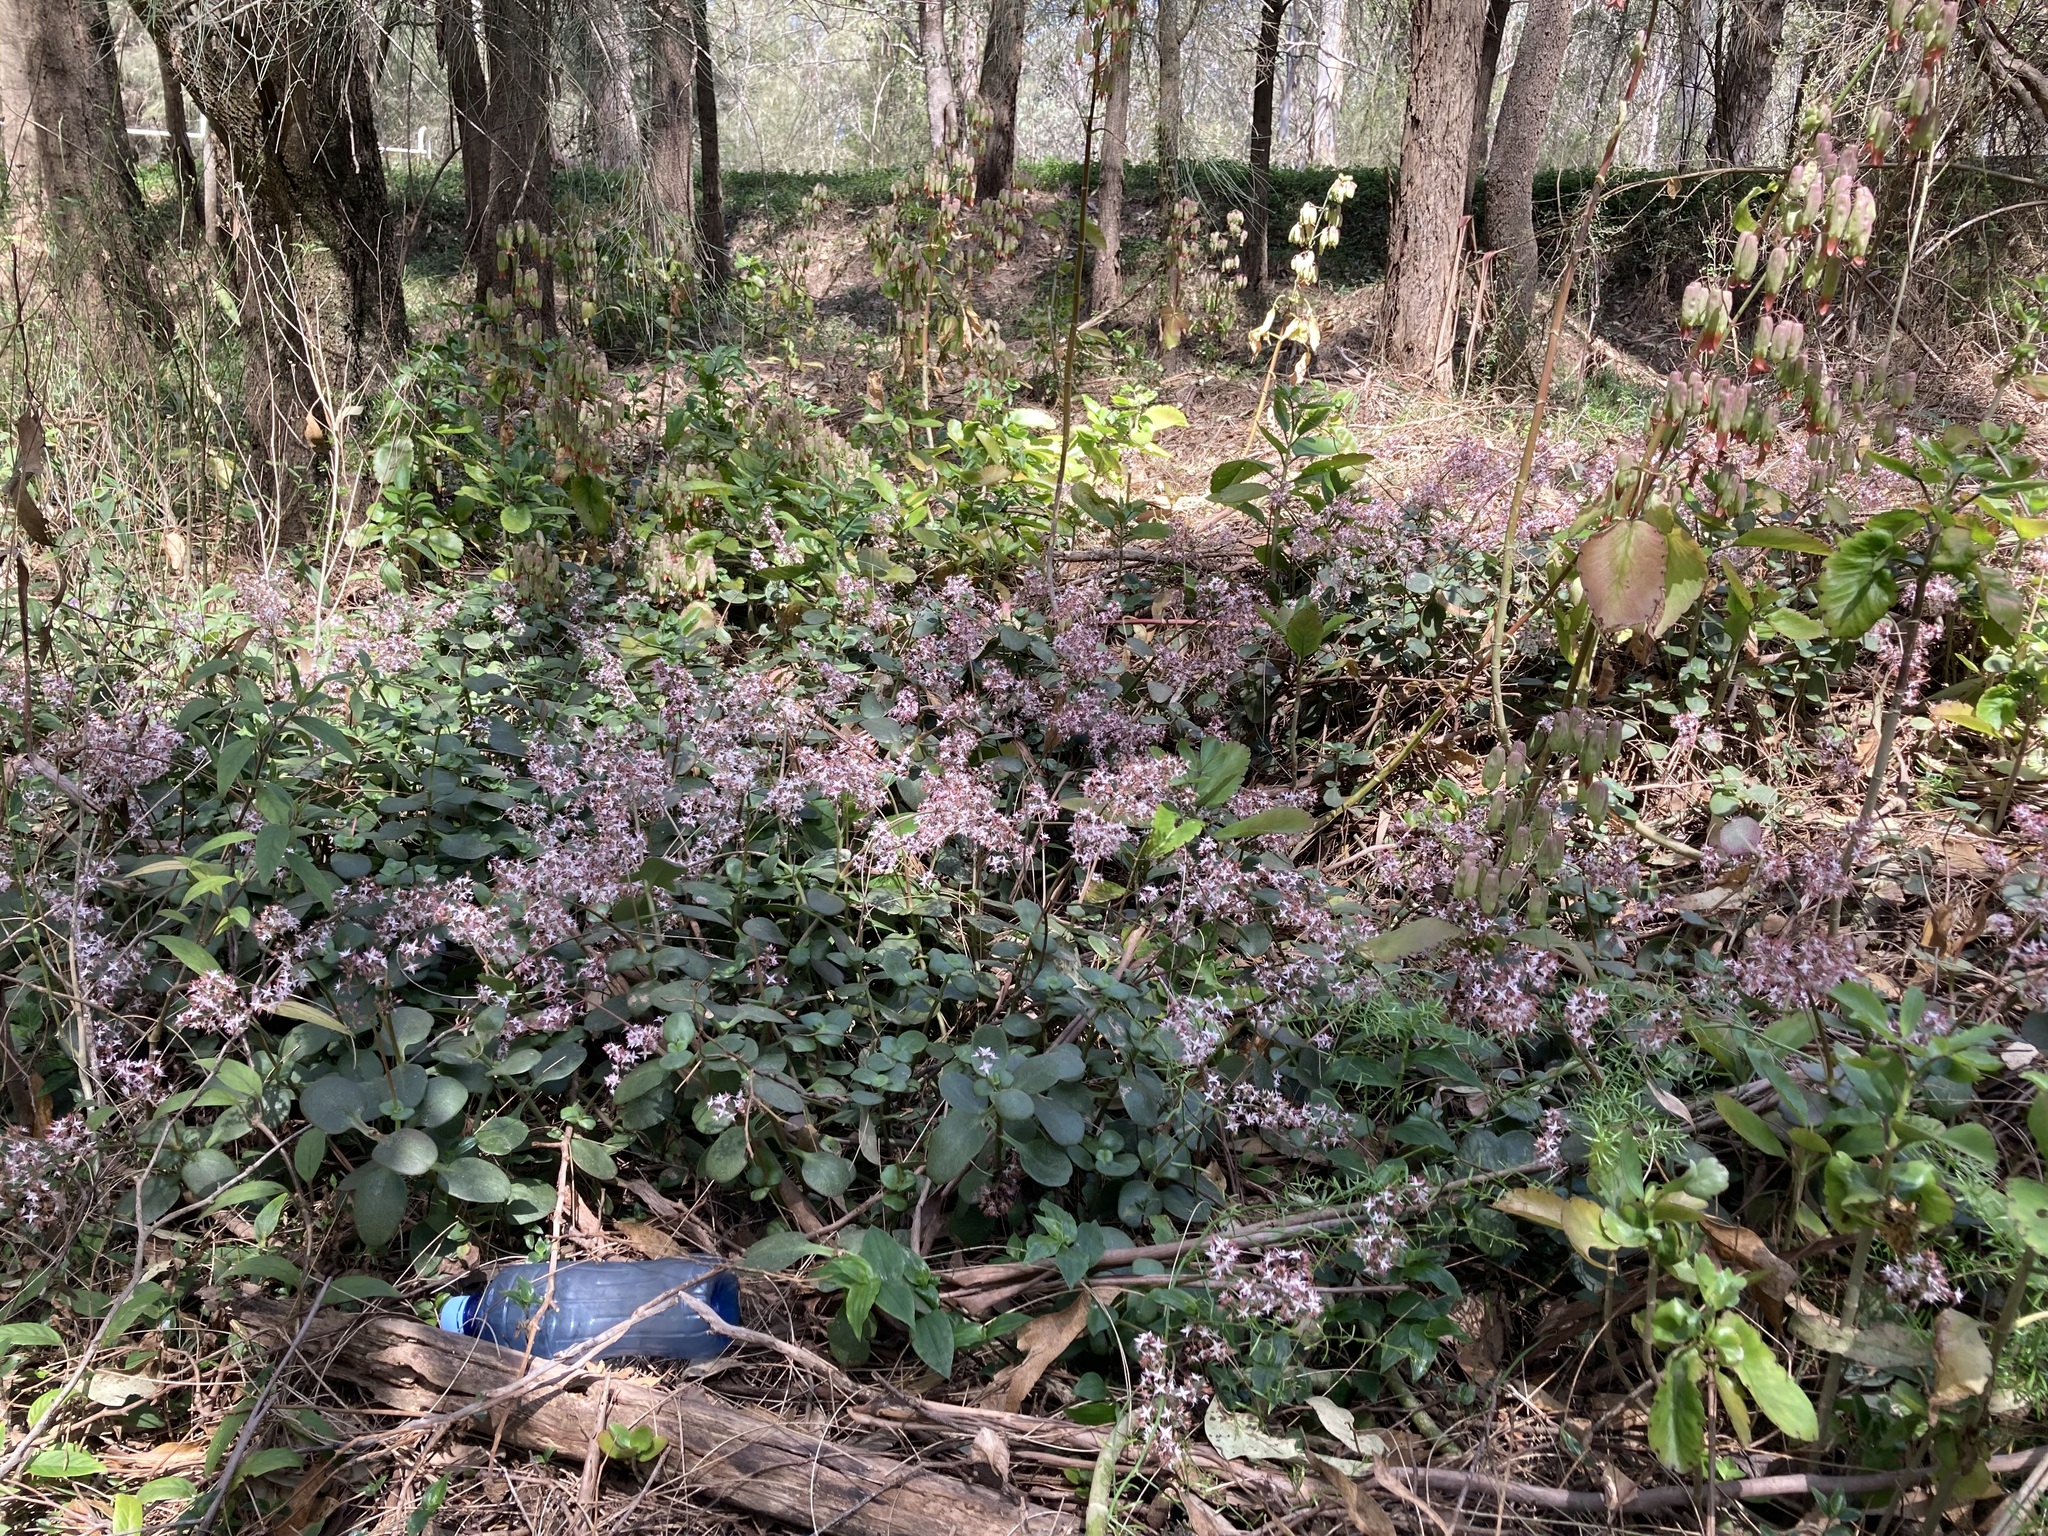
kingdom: Plantae
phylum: Tracheophyta
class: Magnoliopsida
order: Saxifragales
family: Crassulaceae
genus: Crassula
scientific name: Crassula multicava
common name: Cape province pygmyweed
